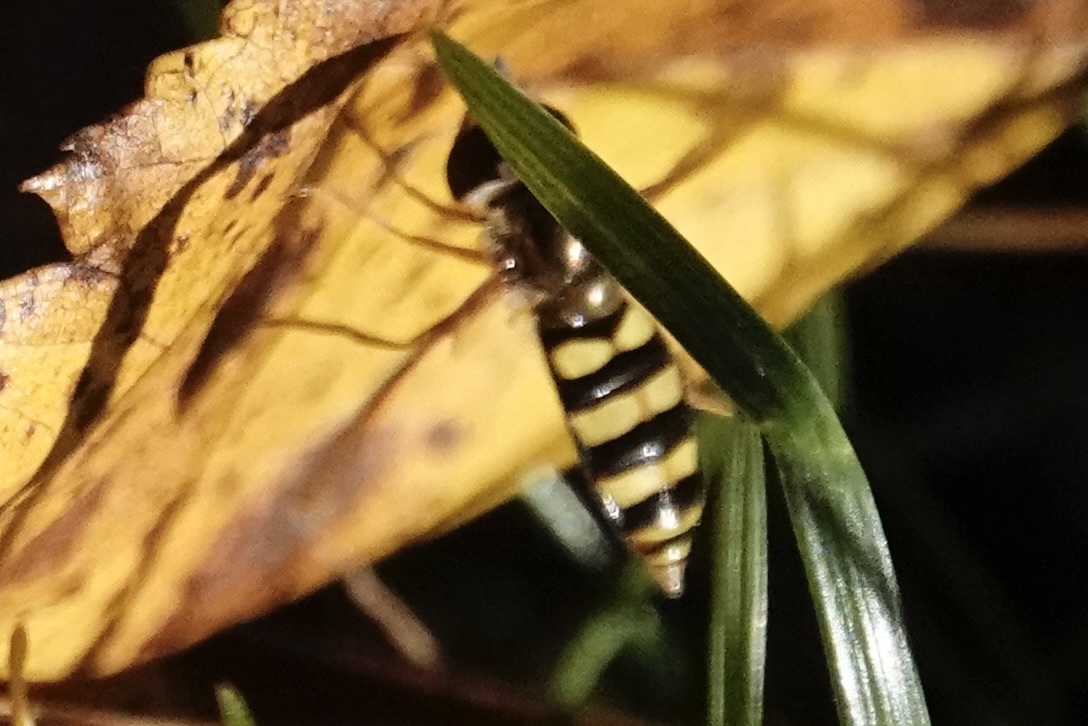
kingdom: Animalia
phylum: Arthropoda
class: Insecta
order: Diptera
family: Syrphidae
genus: Eupeodes
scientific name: Eupeodes
